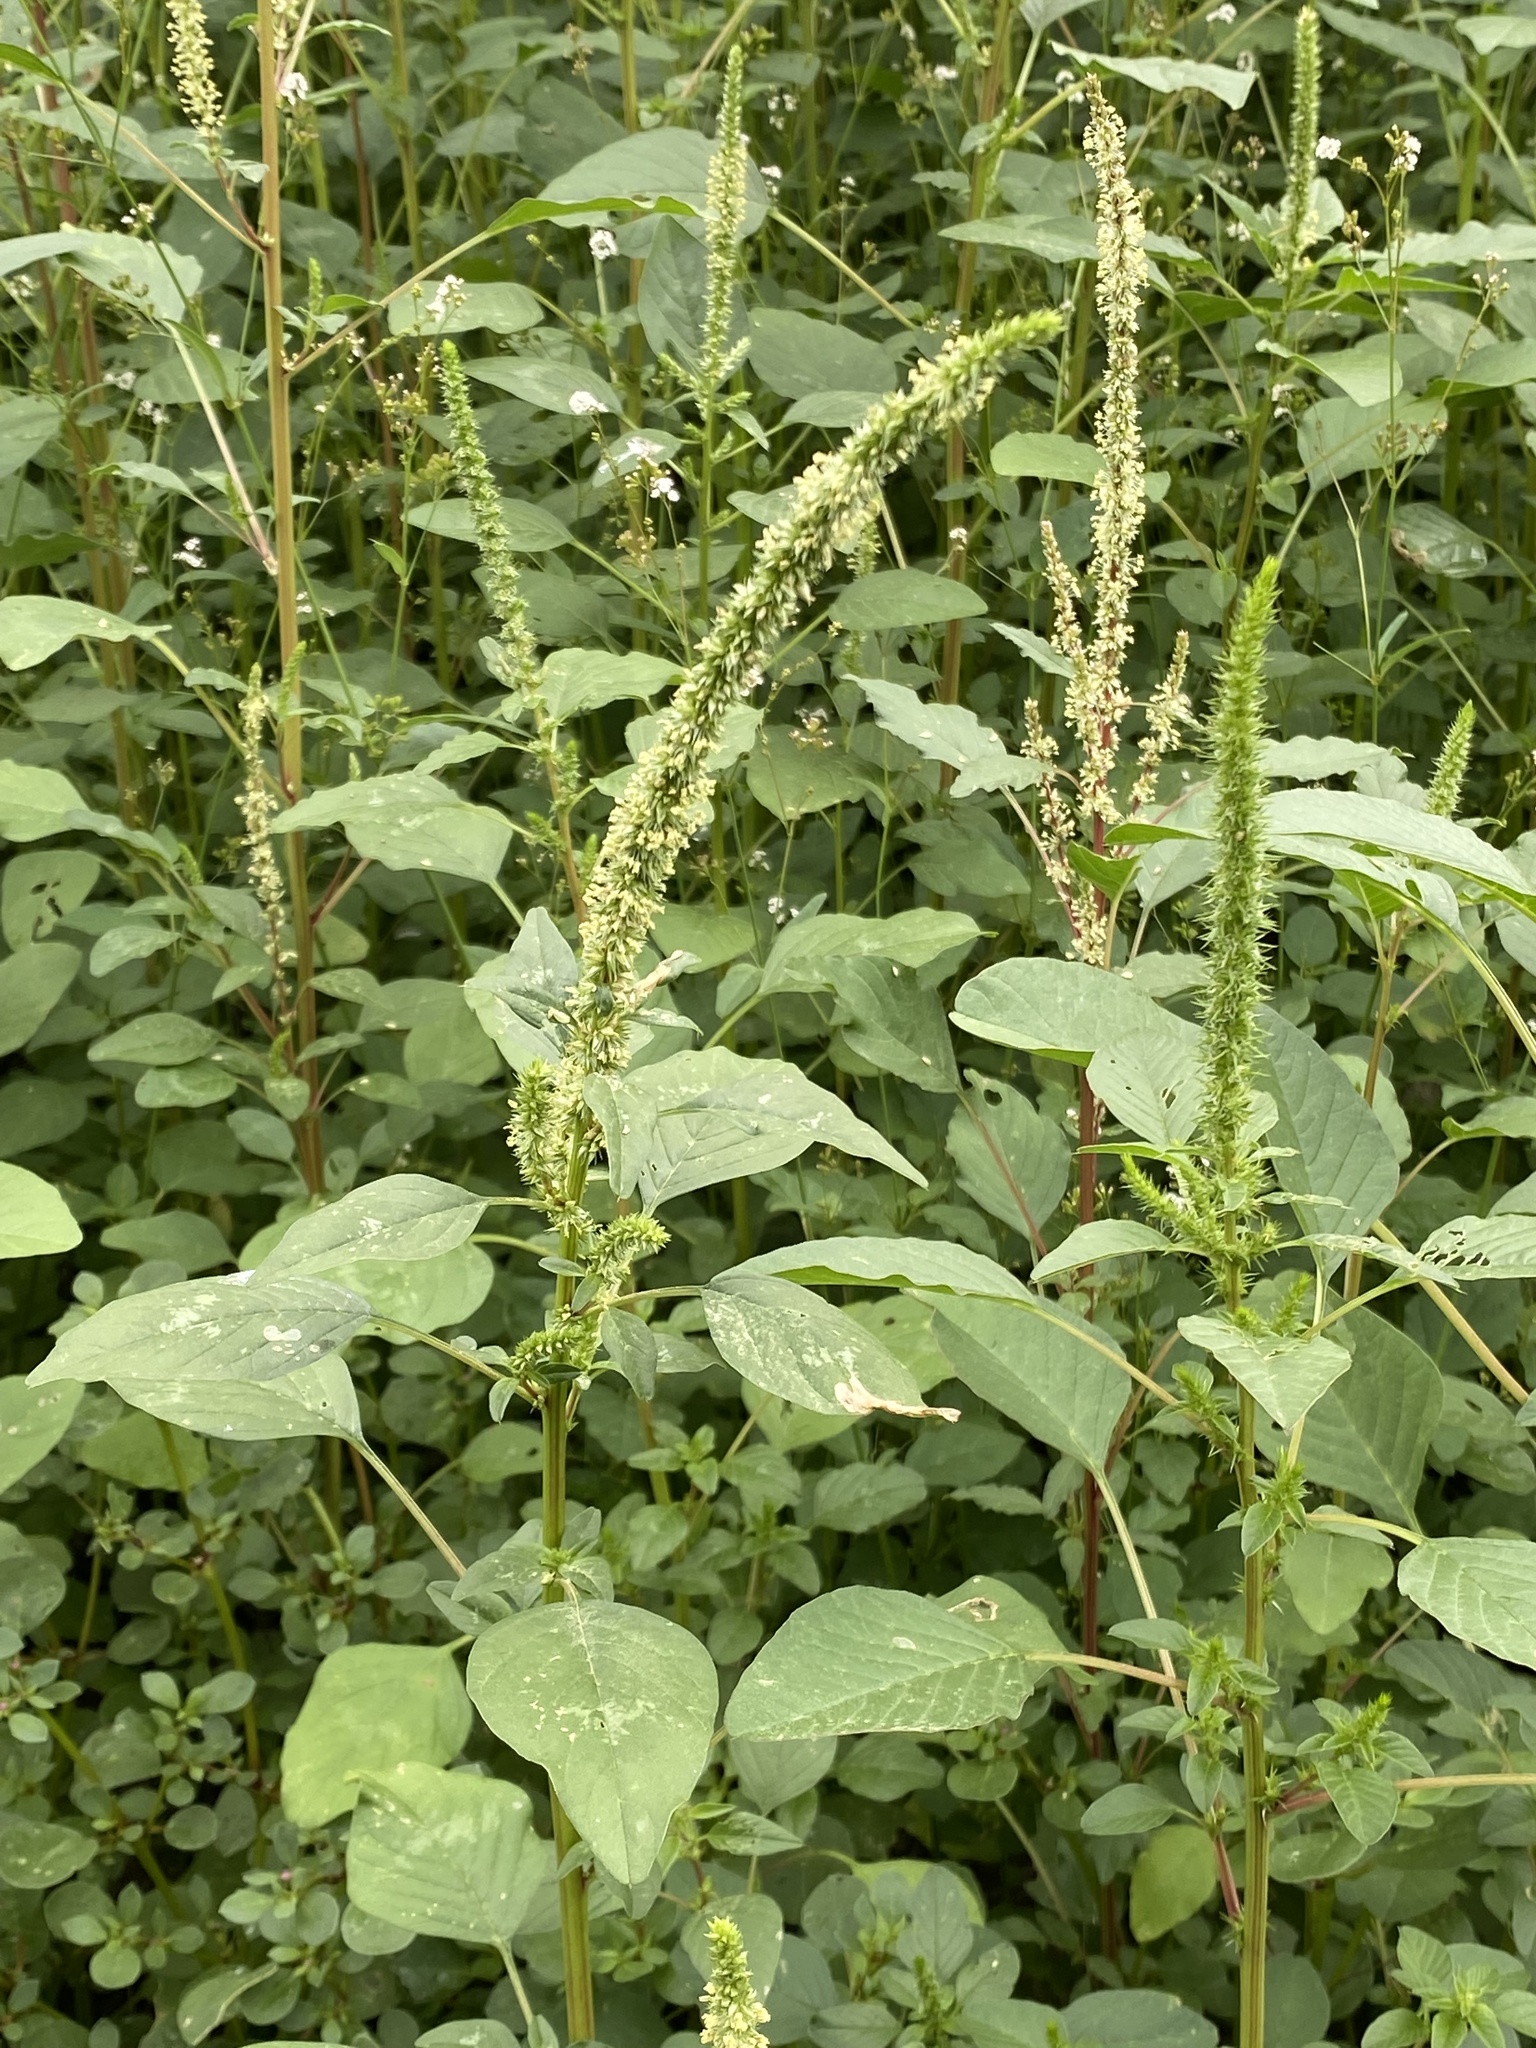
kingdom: Plantae
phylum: Tracheophyta
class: Magnoliopsida
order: Caryophyllales
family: Amaranthaceae
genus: Amaranthus
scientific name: Amaranthus palmeri
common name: Dioecious amaranth
